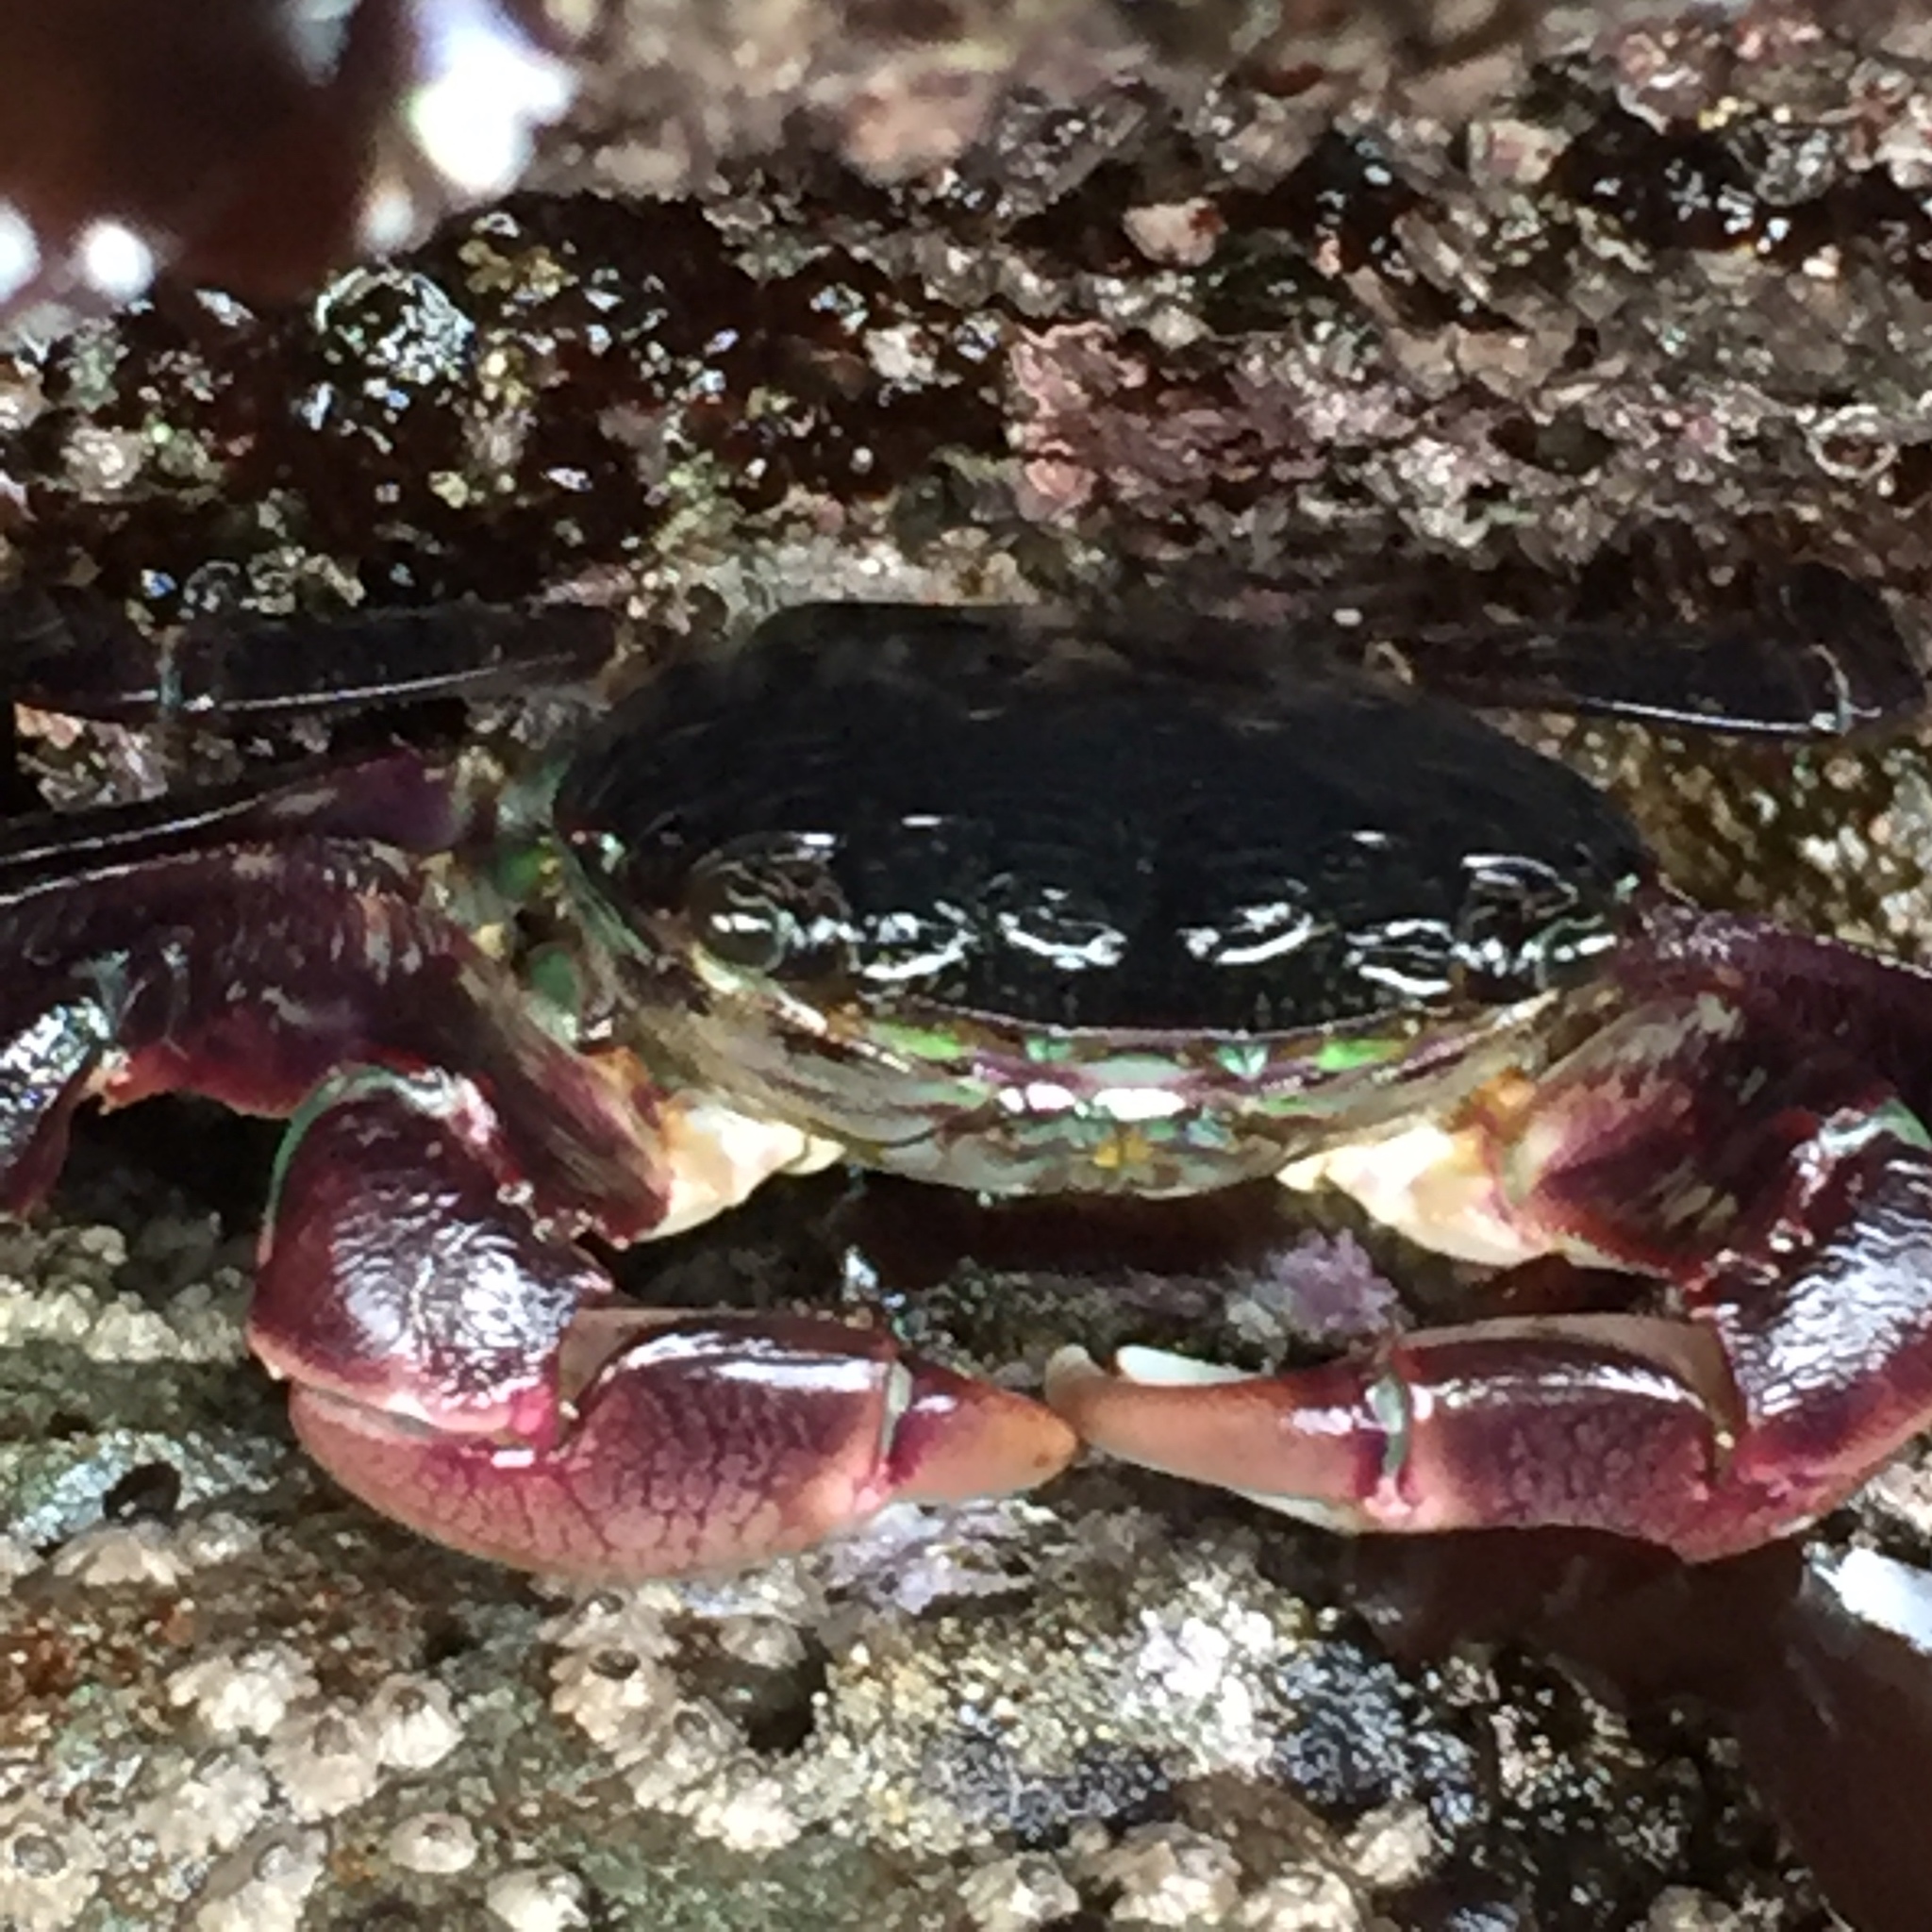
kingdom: Animalia
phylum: Arthropoda
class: Malacostraca
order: Decapoda
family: Grapsidae
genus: Pachygrapsus
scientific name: Pachygrapsus crassipes
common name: Striped shore crab
